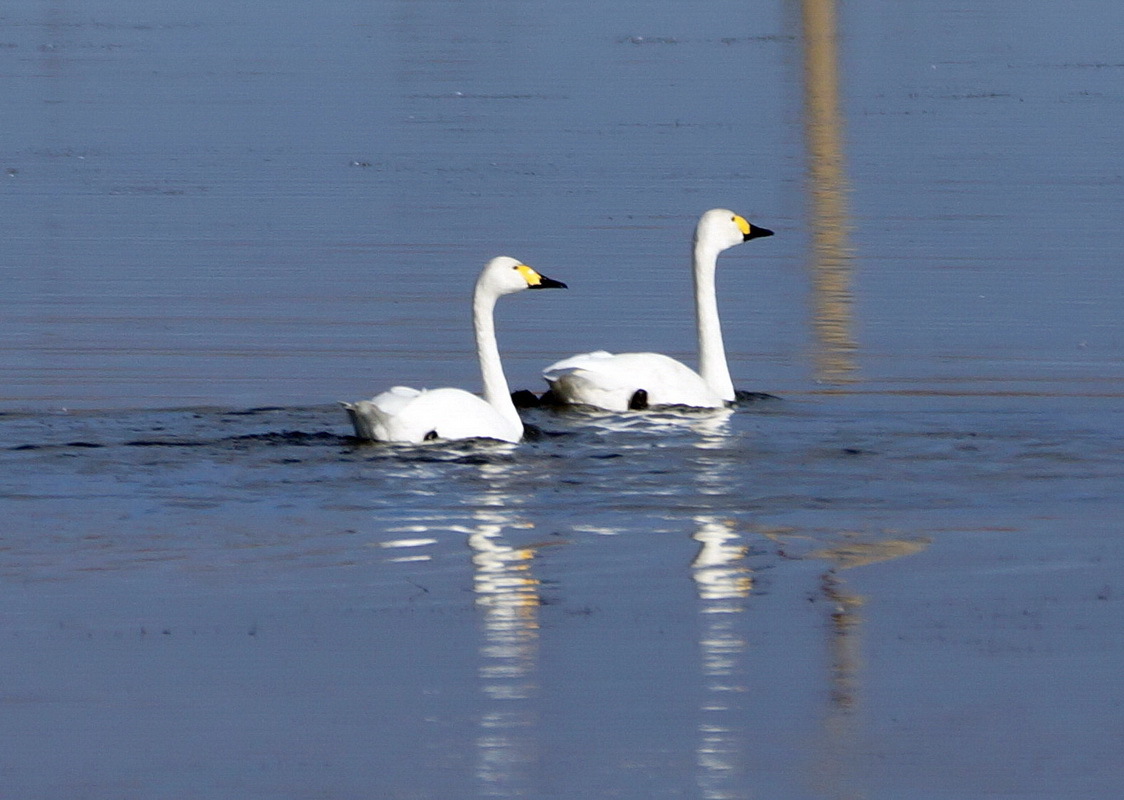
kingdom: Animalia
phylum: Chordata
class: Aves
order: Anseriformes
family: Anatidae
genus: Cygnus
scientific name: Cygnus columbianus
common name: Tundra swan
